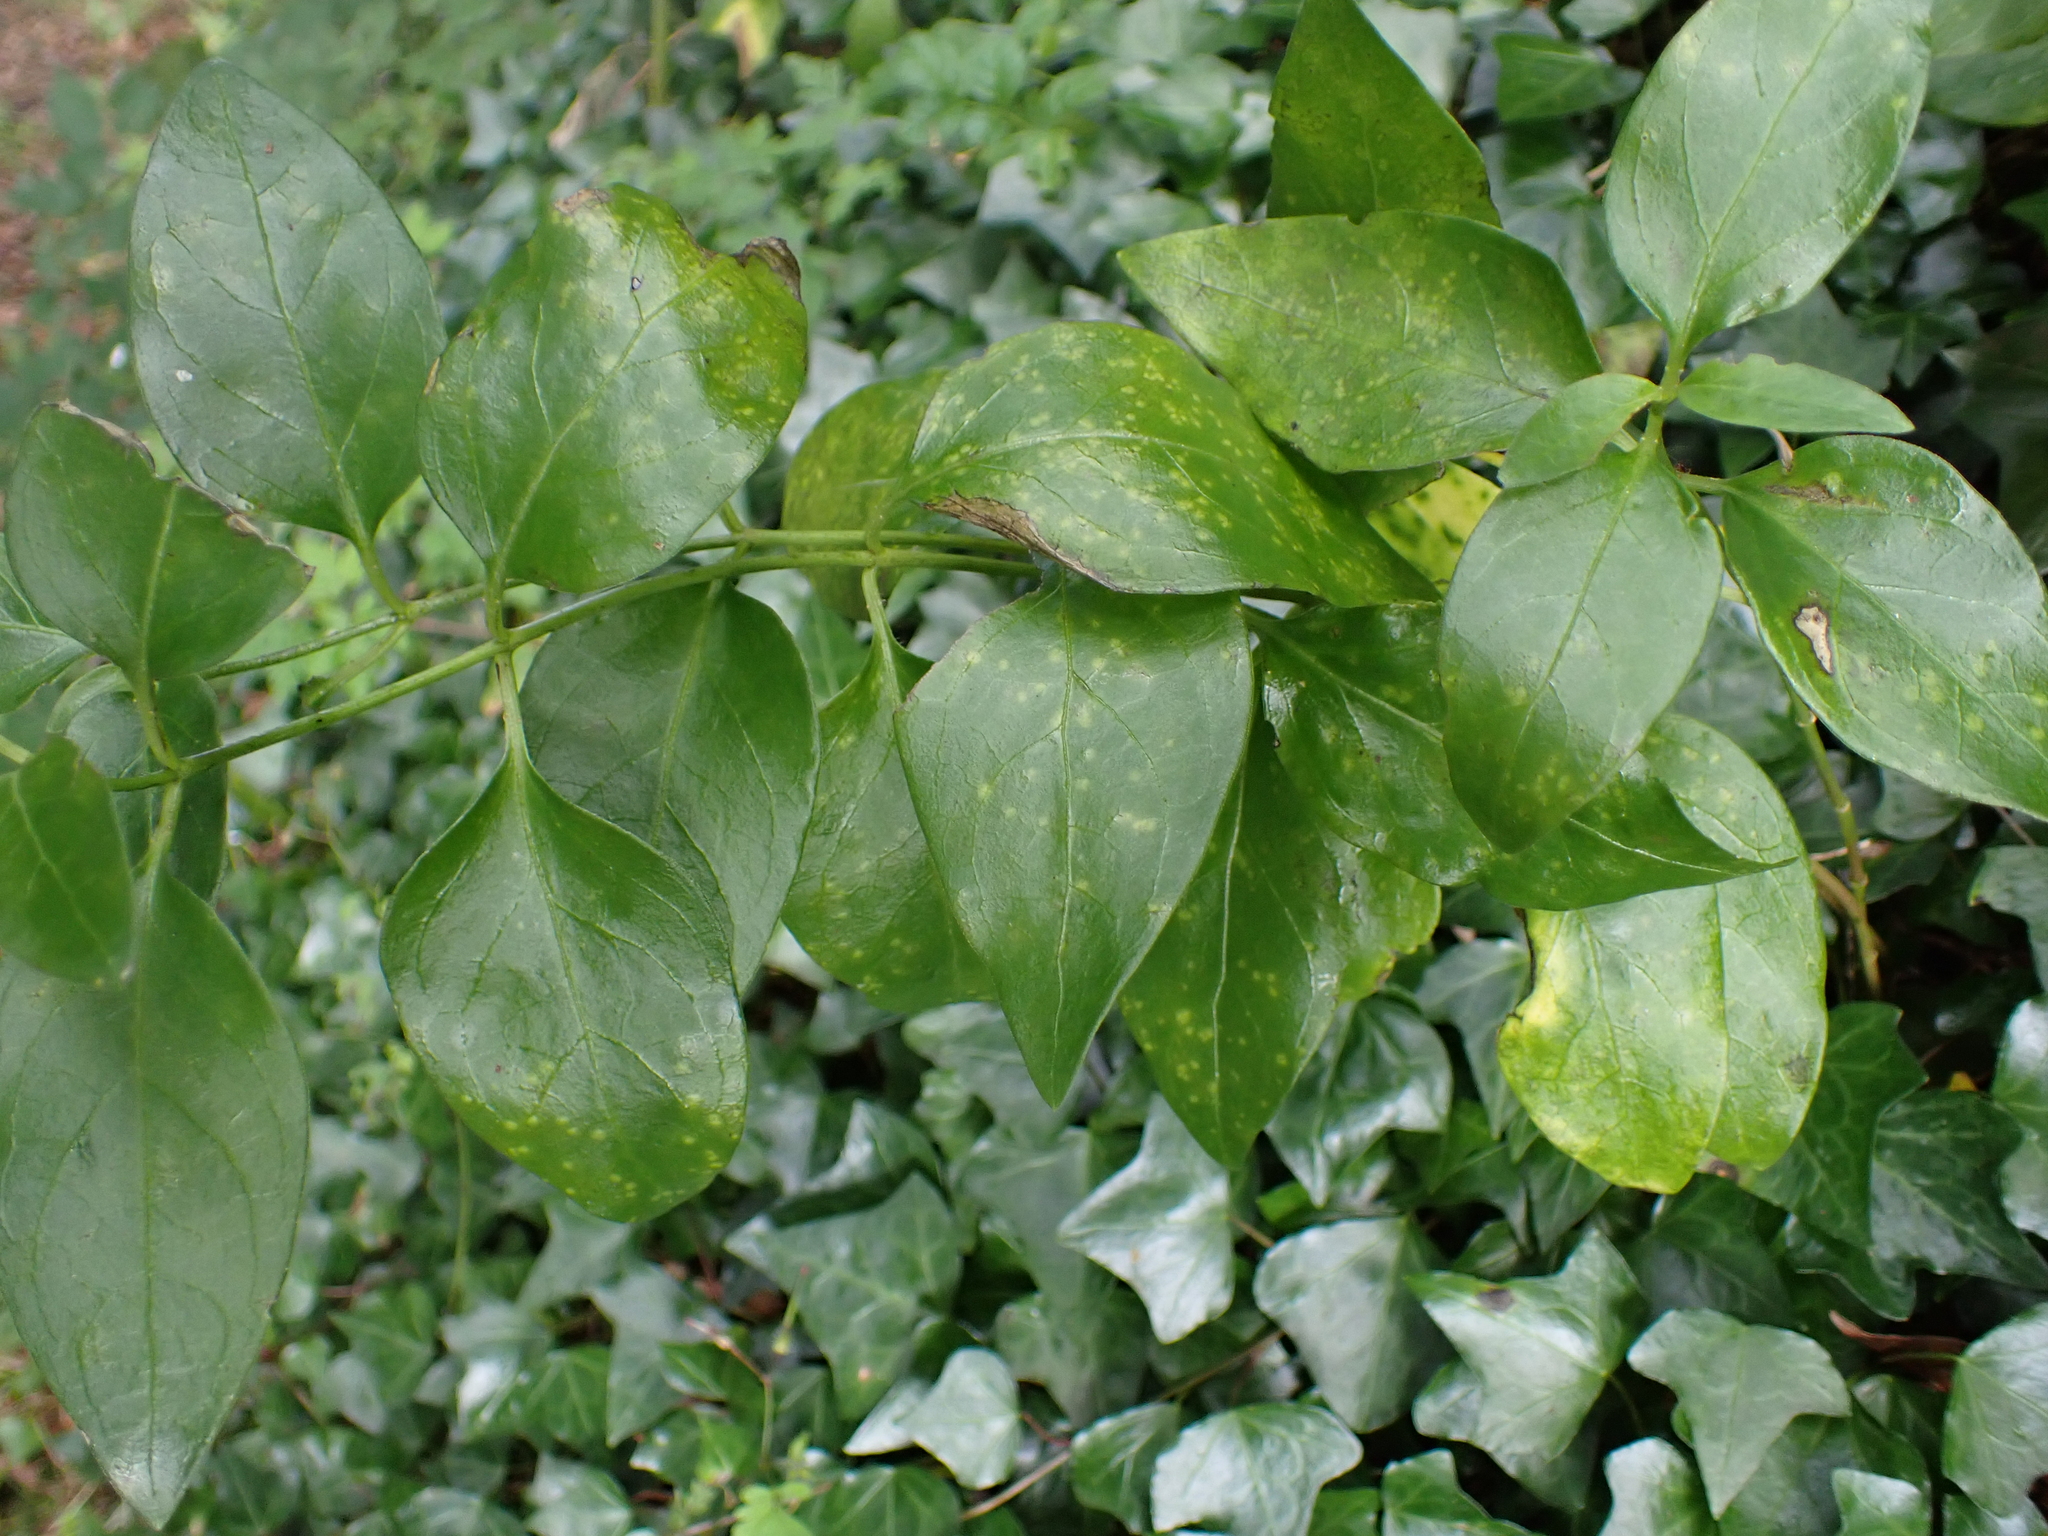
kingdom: Fungi
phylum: Basidiomycota
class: Pucciniomycetes
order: Pucciniales
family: Pucciniaceae
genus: Puccinia
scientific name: Puccinia vincae
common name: Periwinkle rust
